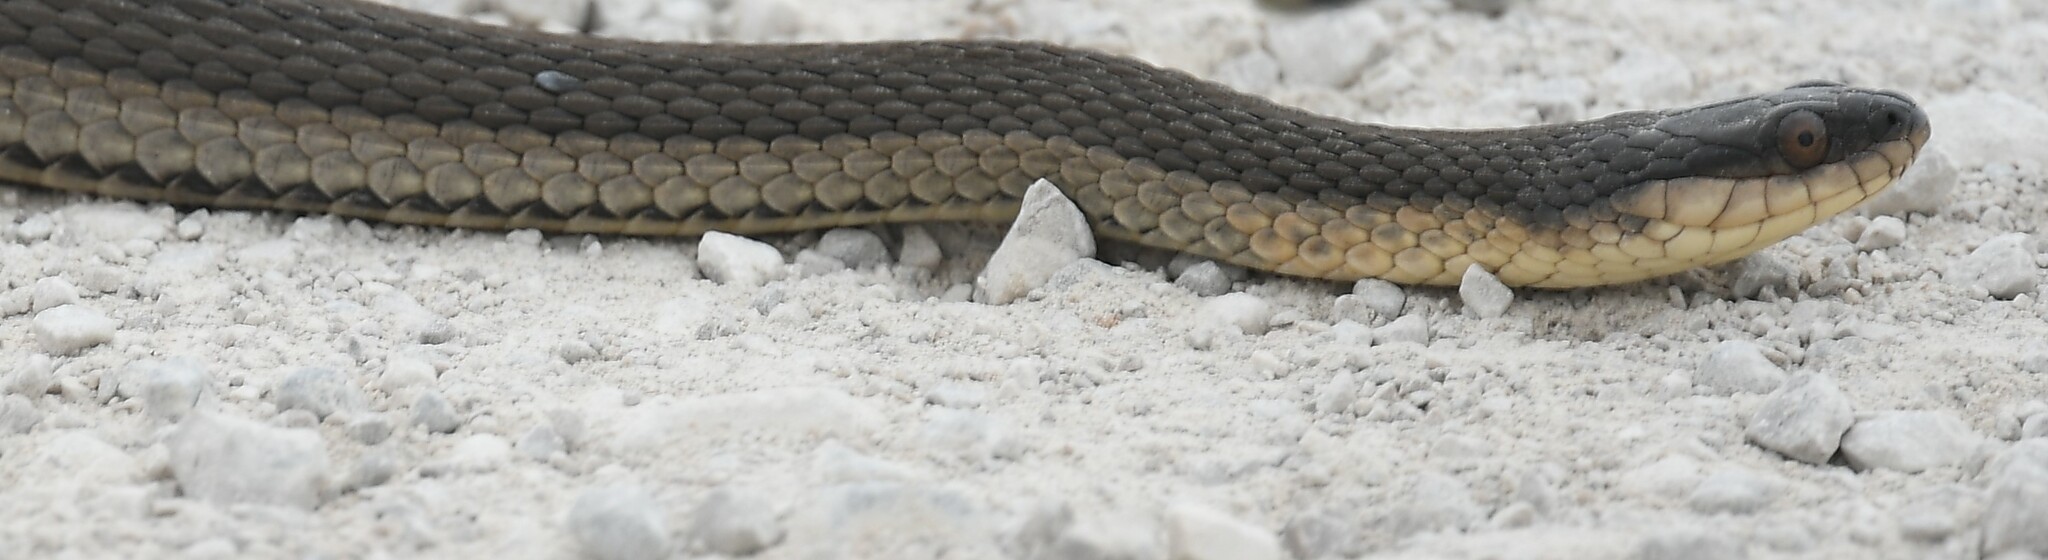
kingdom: Animalia
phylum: Chordata
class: Squamata
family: Colubridae
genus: Regina
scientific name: Regina grahamii
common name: Graham's crayfish snake
